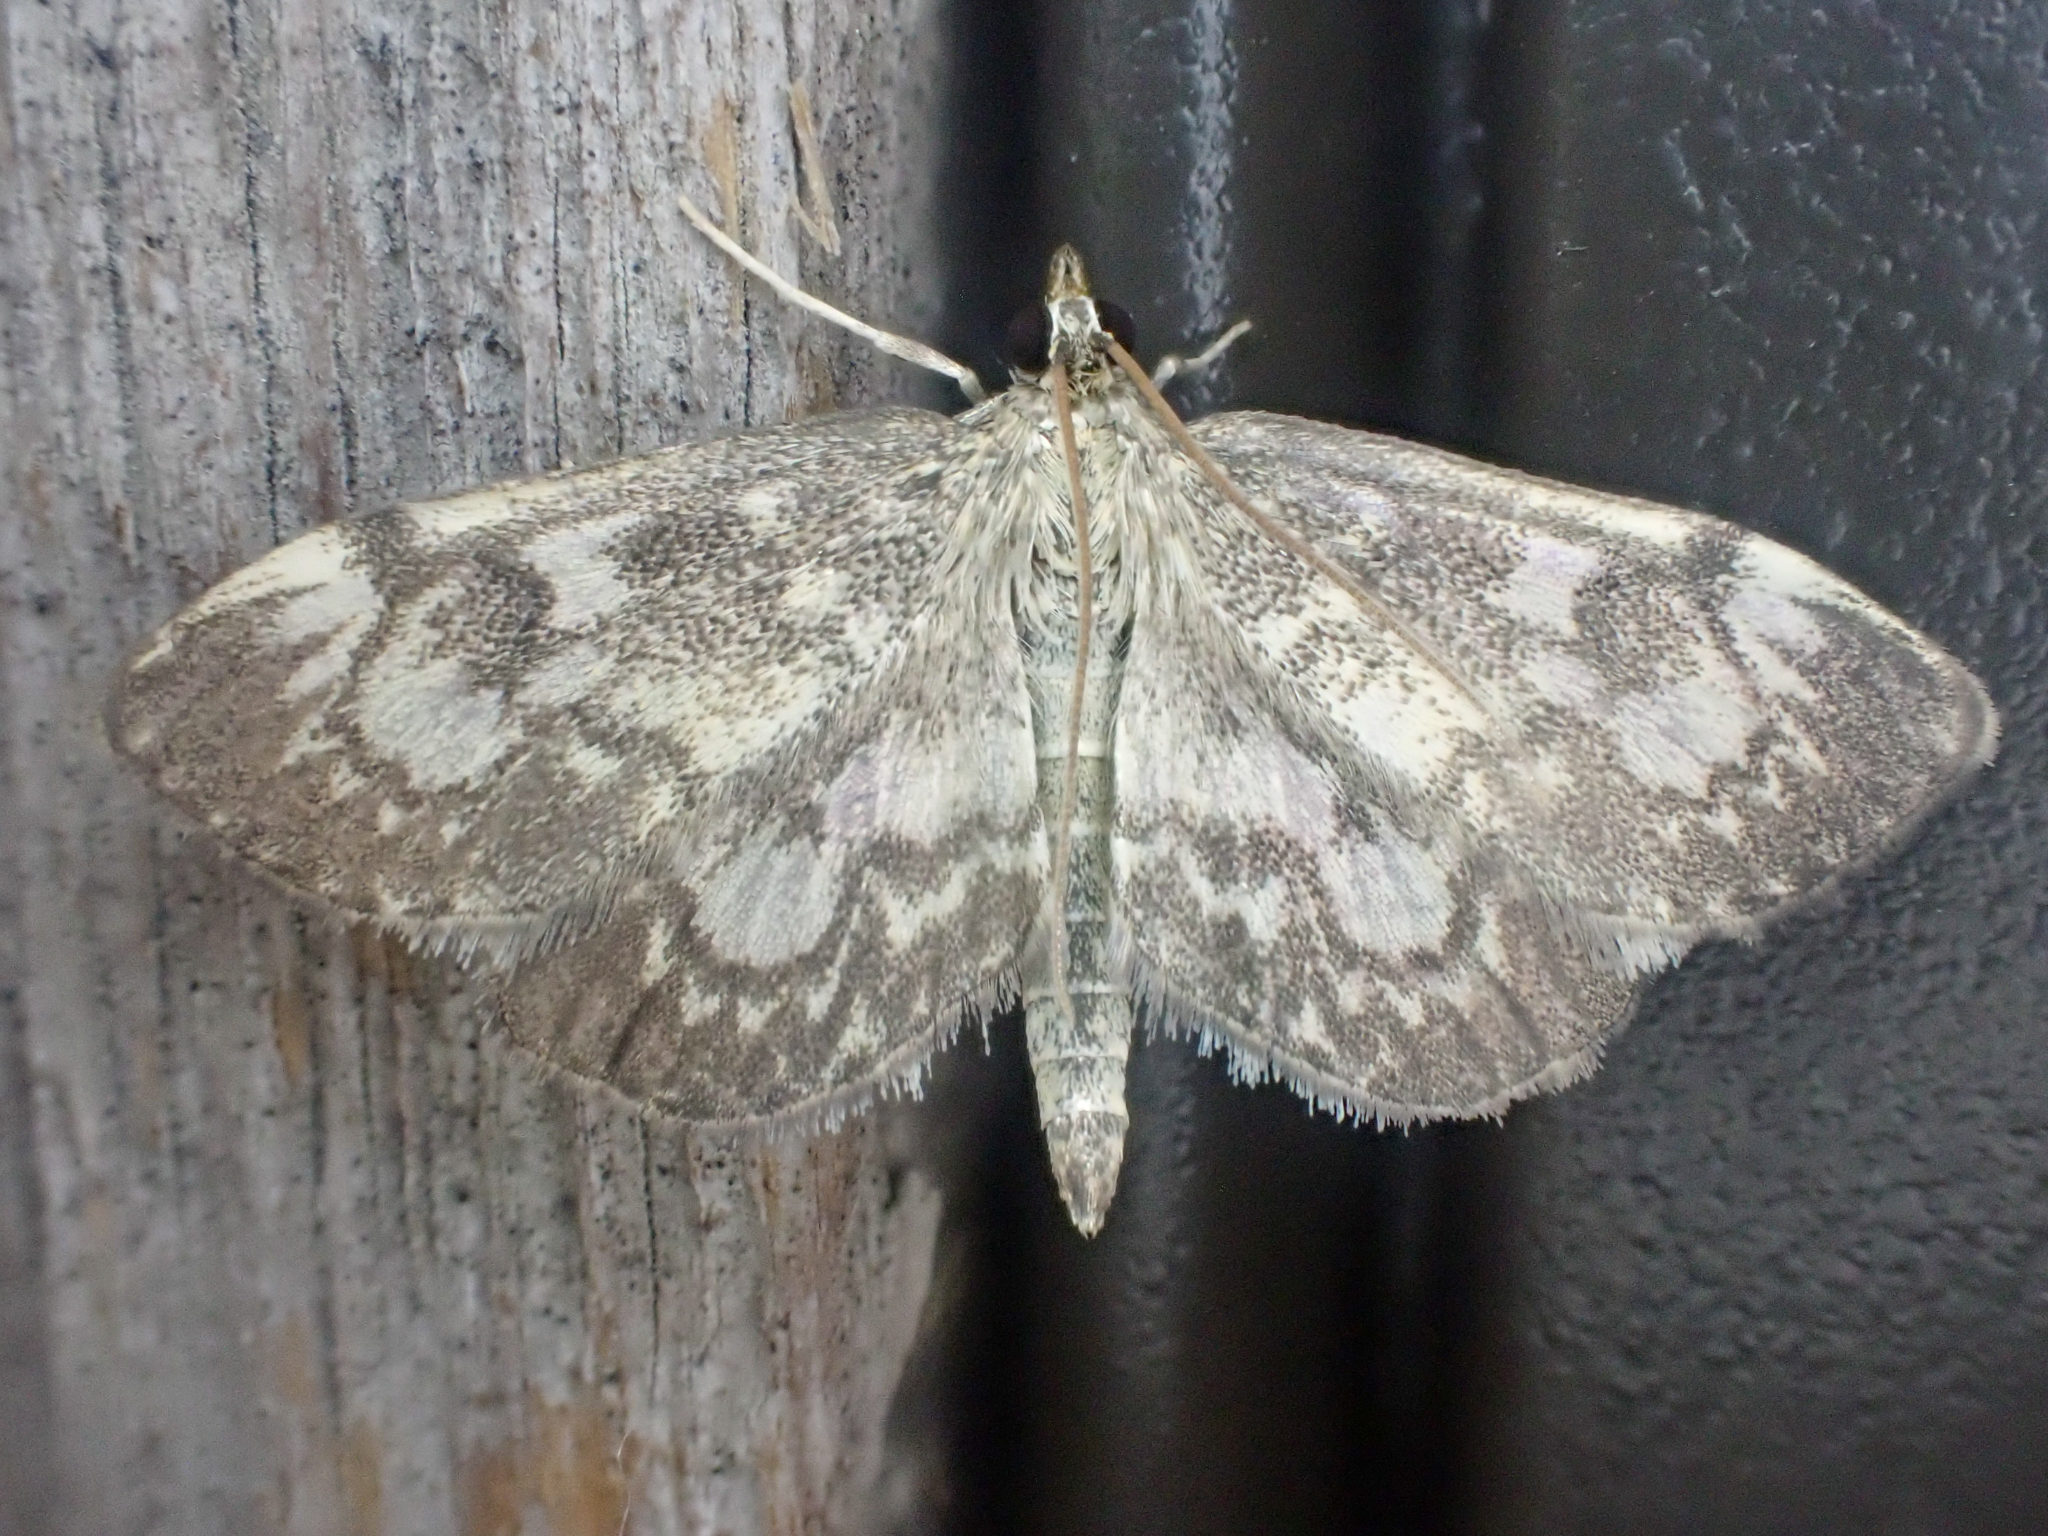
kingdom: Animalia
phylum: Arthropoda
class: Insecta
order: Lepidoptera
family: Crambidae
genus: Anania
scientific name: Anania tertialis
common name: Crowned phylctaenia moth
